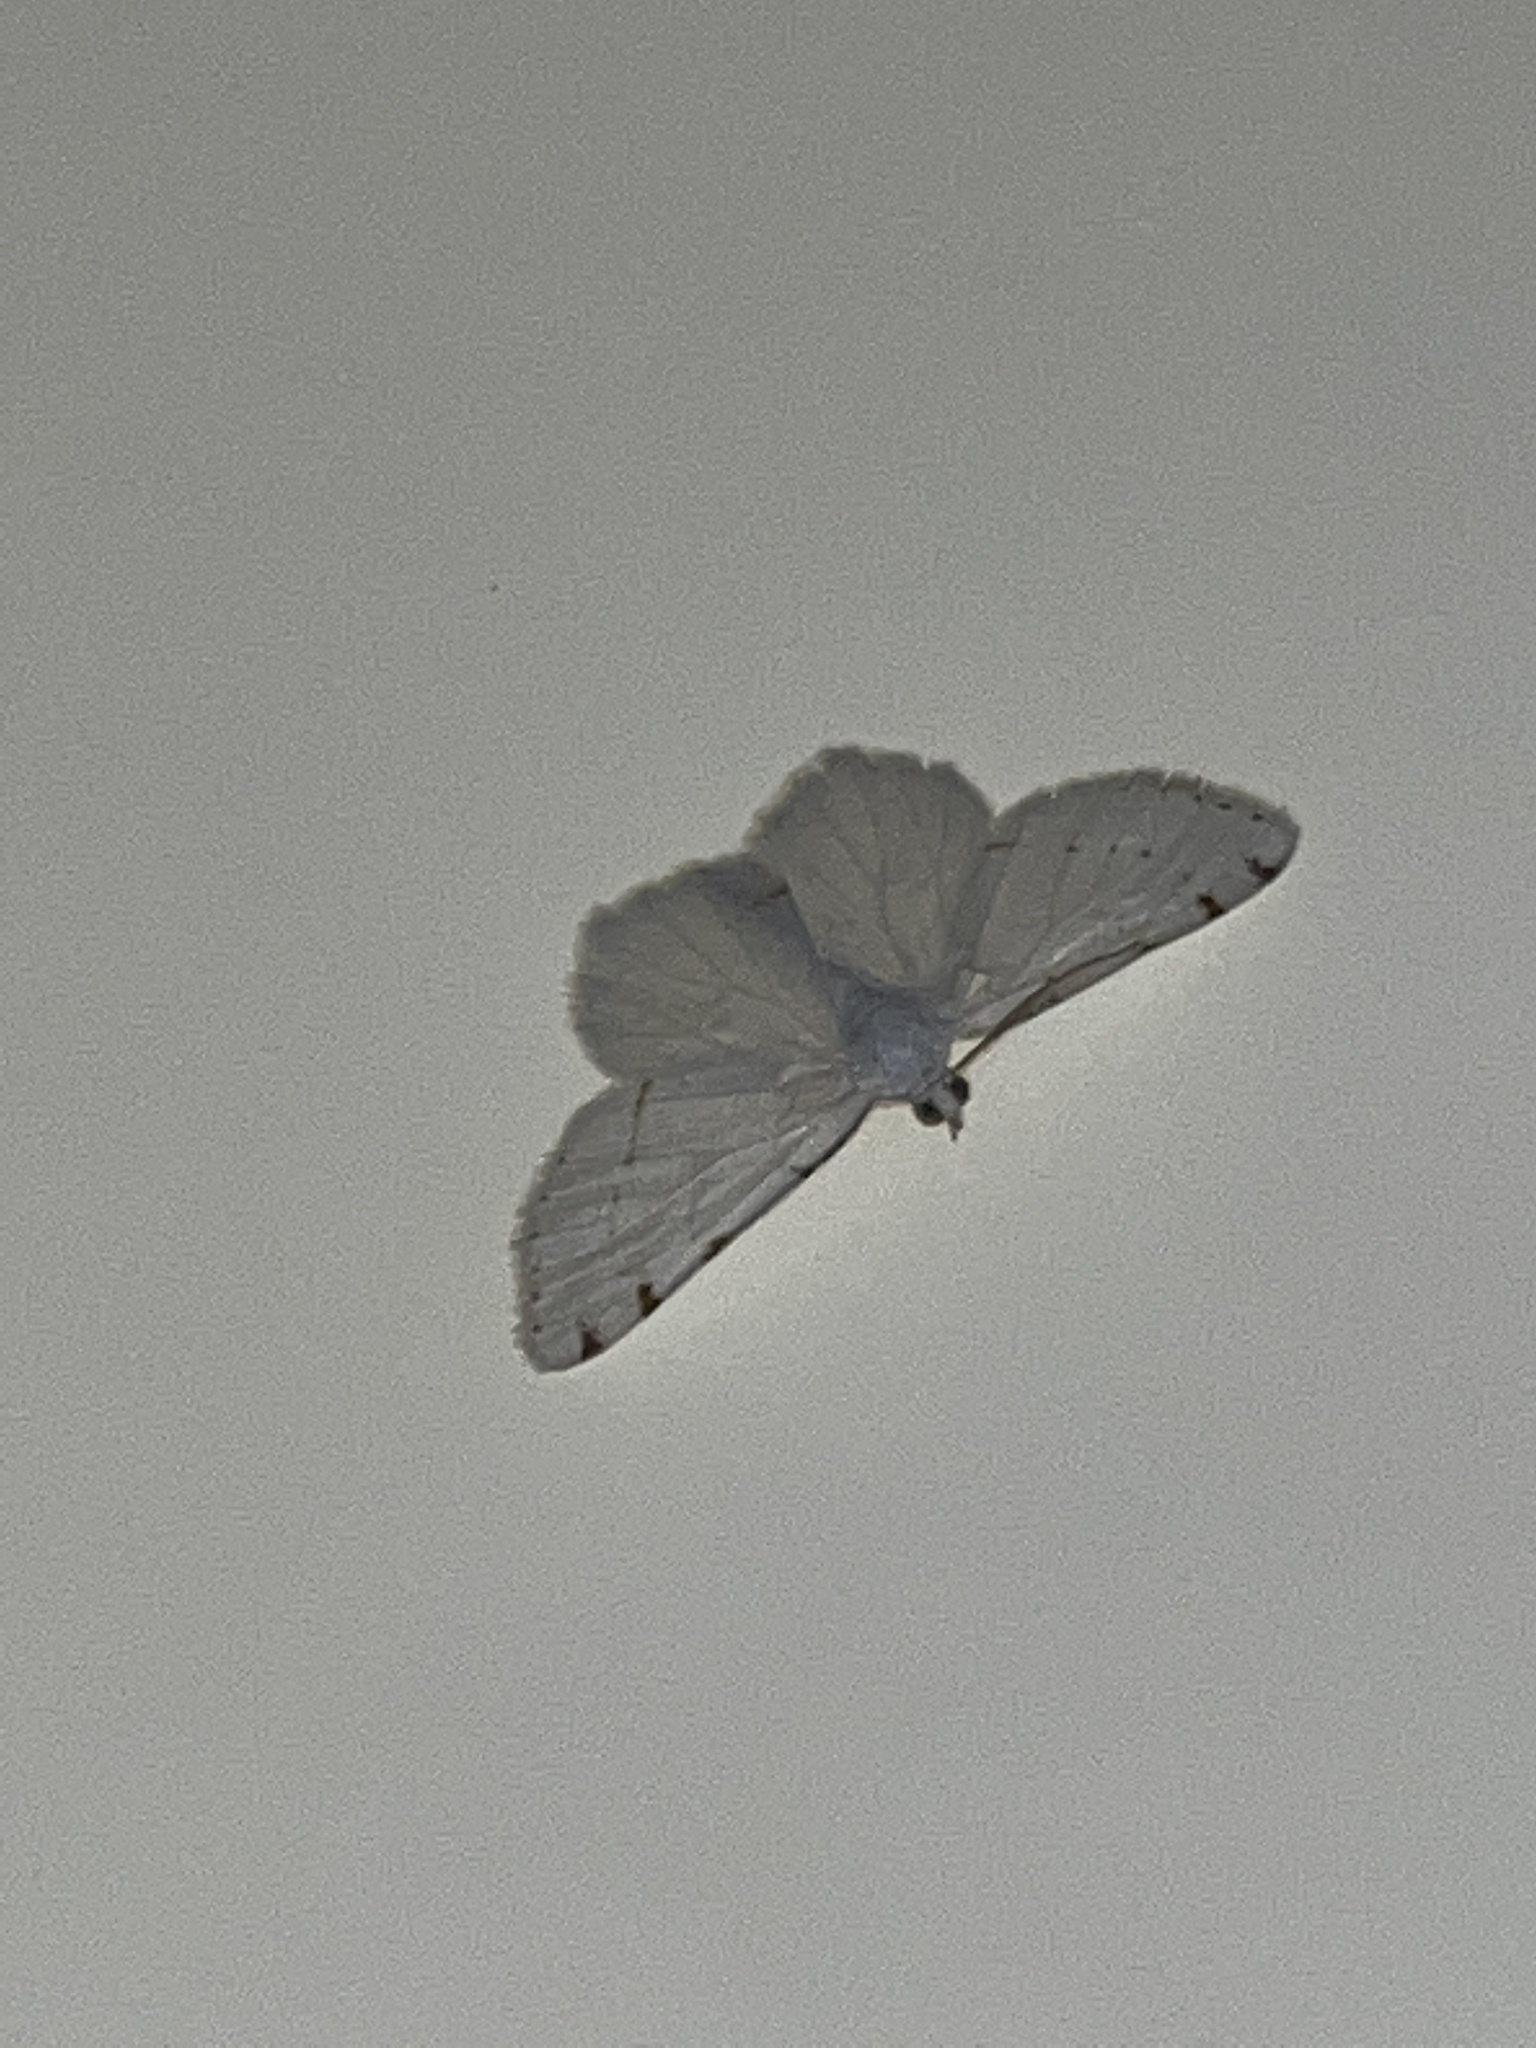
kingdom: Animalia
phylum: Arthropoda
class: Insecta
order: Lepidoptera
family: Geometridae
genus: Macaria
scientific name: Macaria pustularia
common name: Lesser maple spanworm moth
